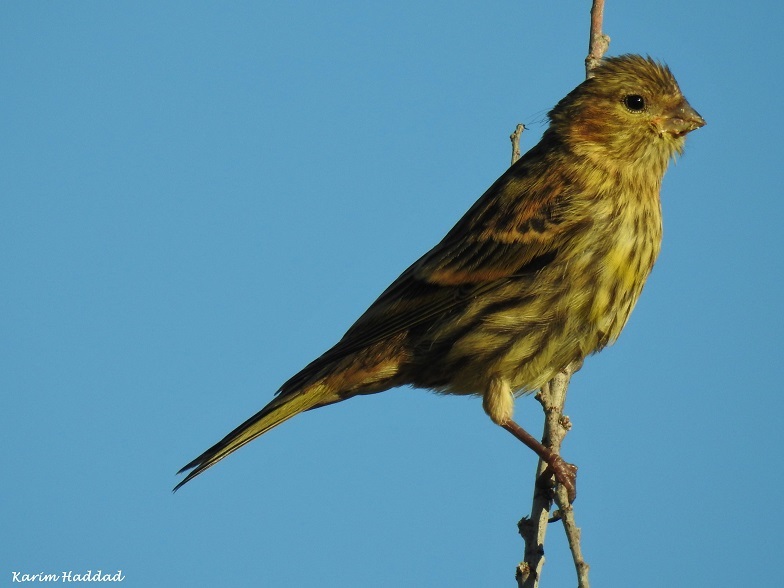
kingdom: Animalia
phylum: Chordata
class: Aves
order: Passeriformes
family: Fringillidae
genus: Serinus
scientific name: Serinus serinus
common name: European serin
